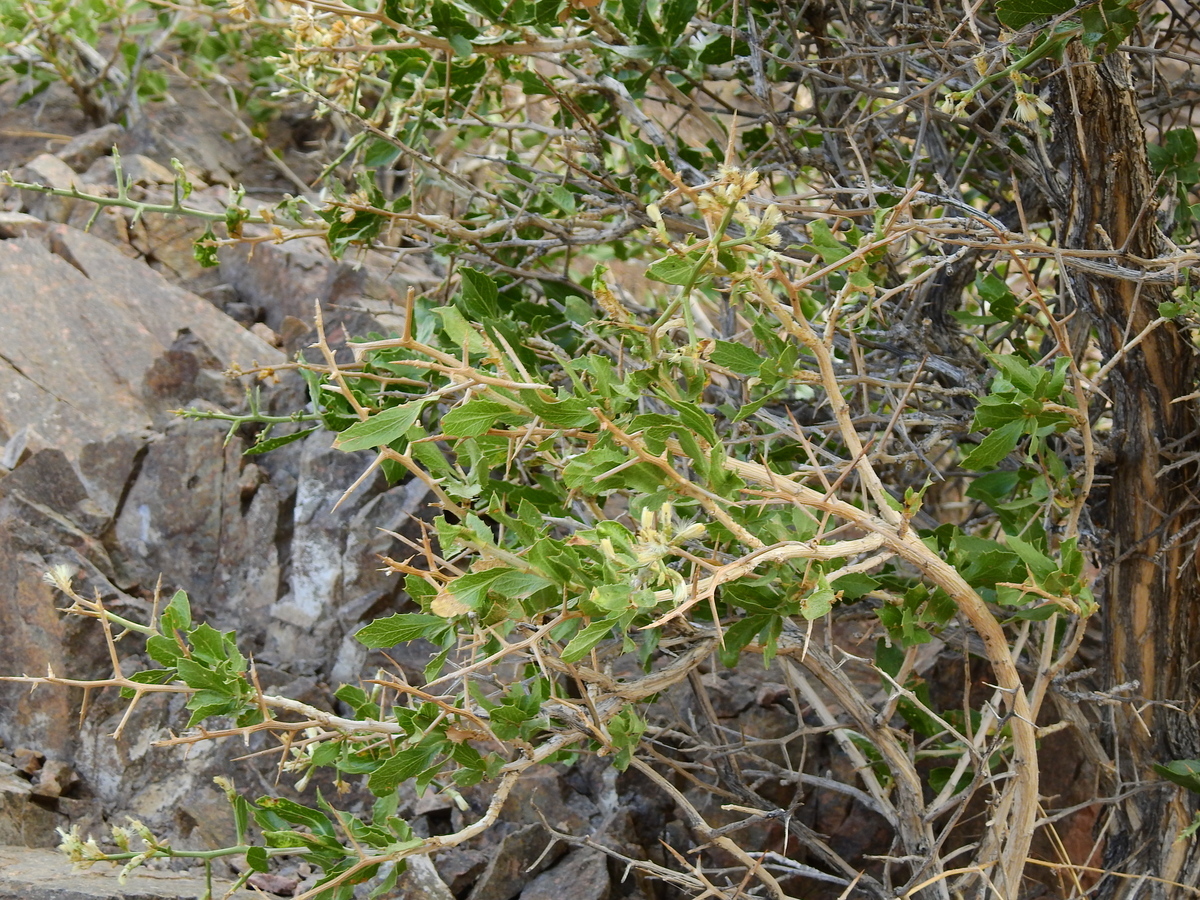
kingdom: Plantae
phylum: Tracheophyta
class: Magnoliopsida
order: Asterales
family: Asteraceae
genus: Proustia
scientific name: Proustia cuneifolia
